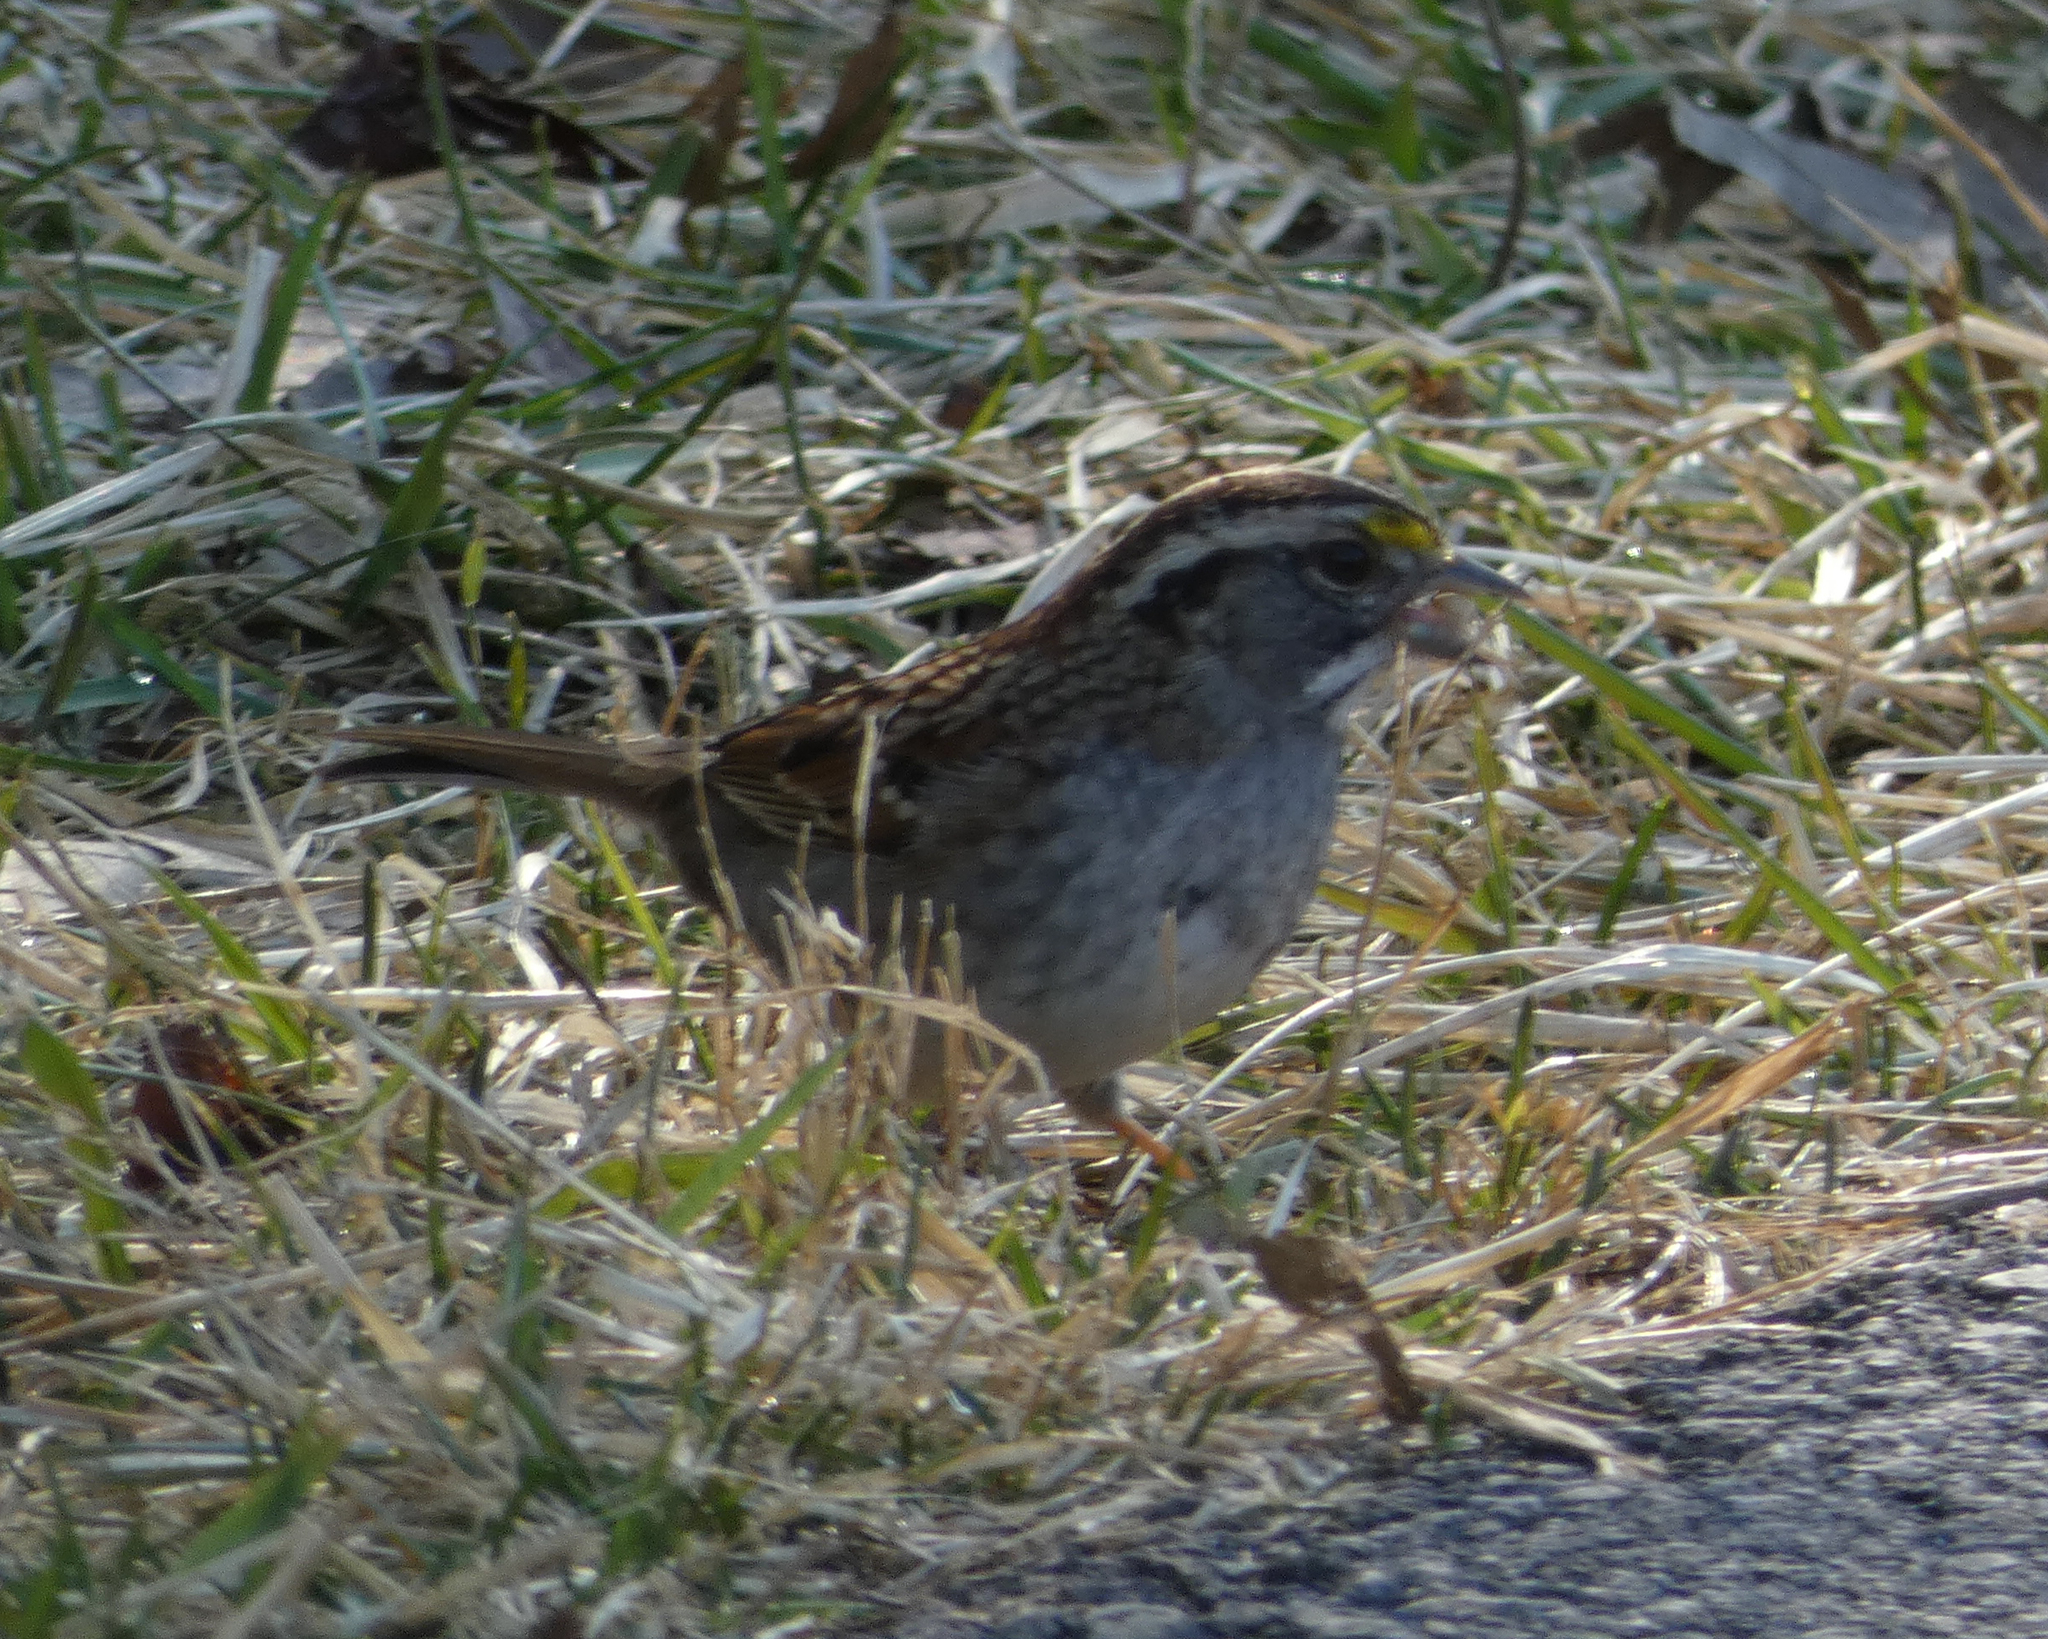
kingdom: Animalia
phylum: Chordata
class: Aves
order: Passeriformes
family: Passerellidae
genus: Zonotrichia
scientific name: Zonotrichia albicollis
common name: White-throated sparrow
